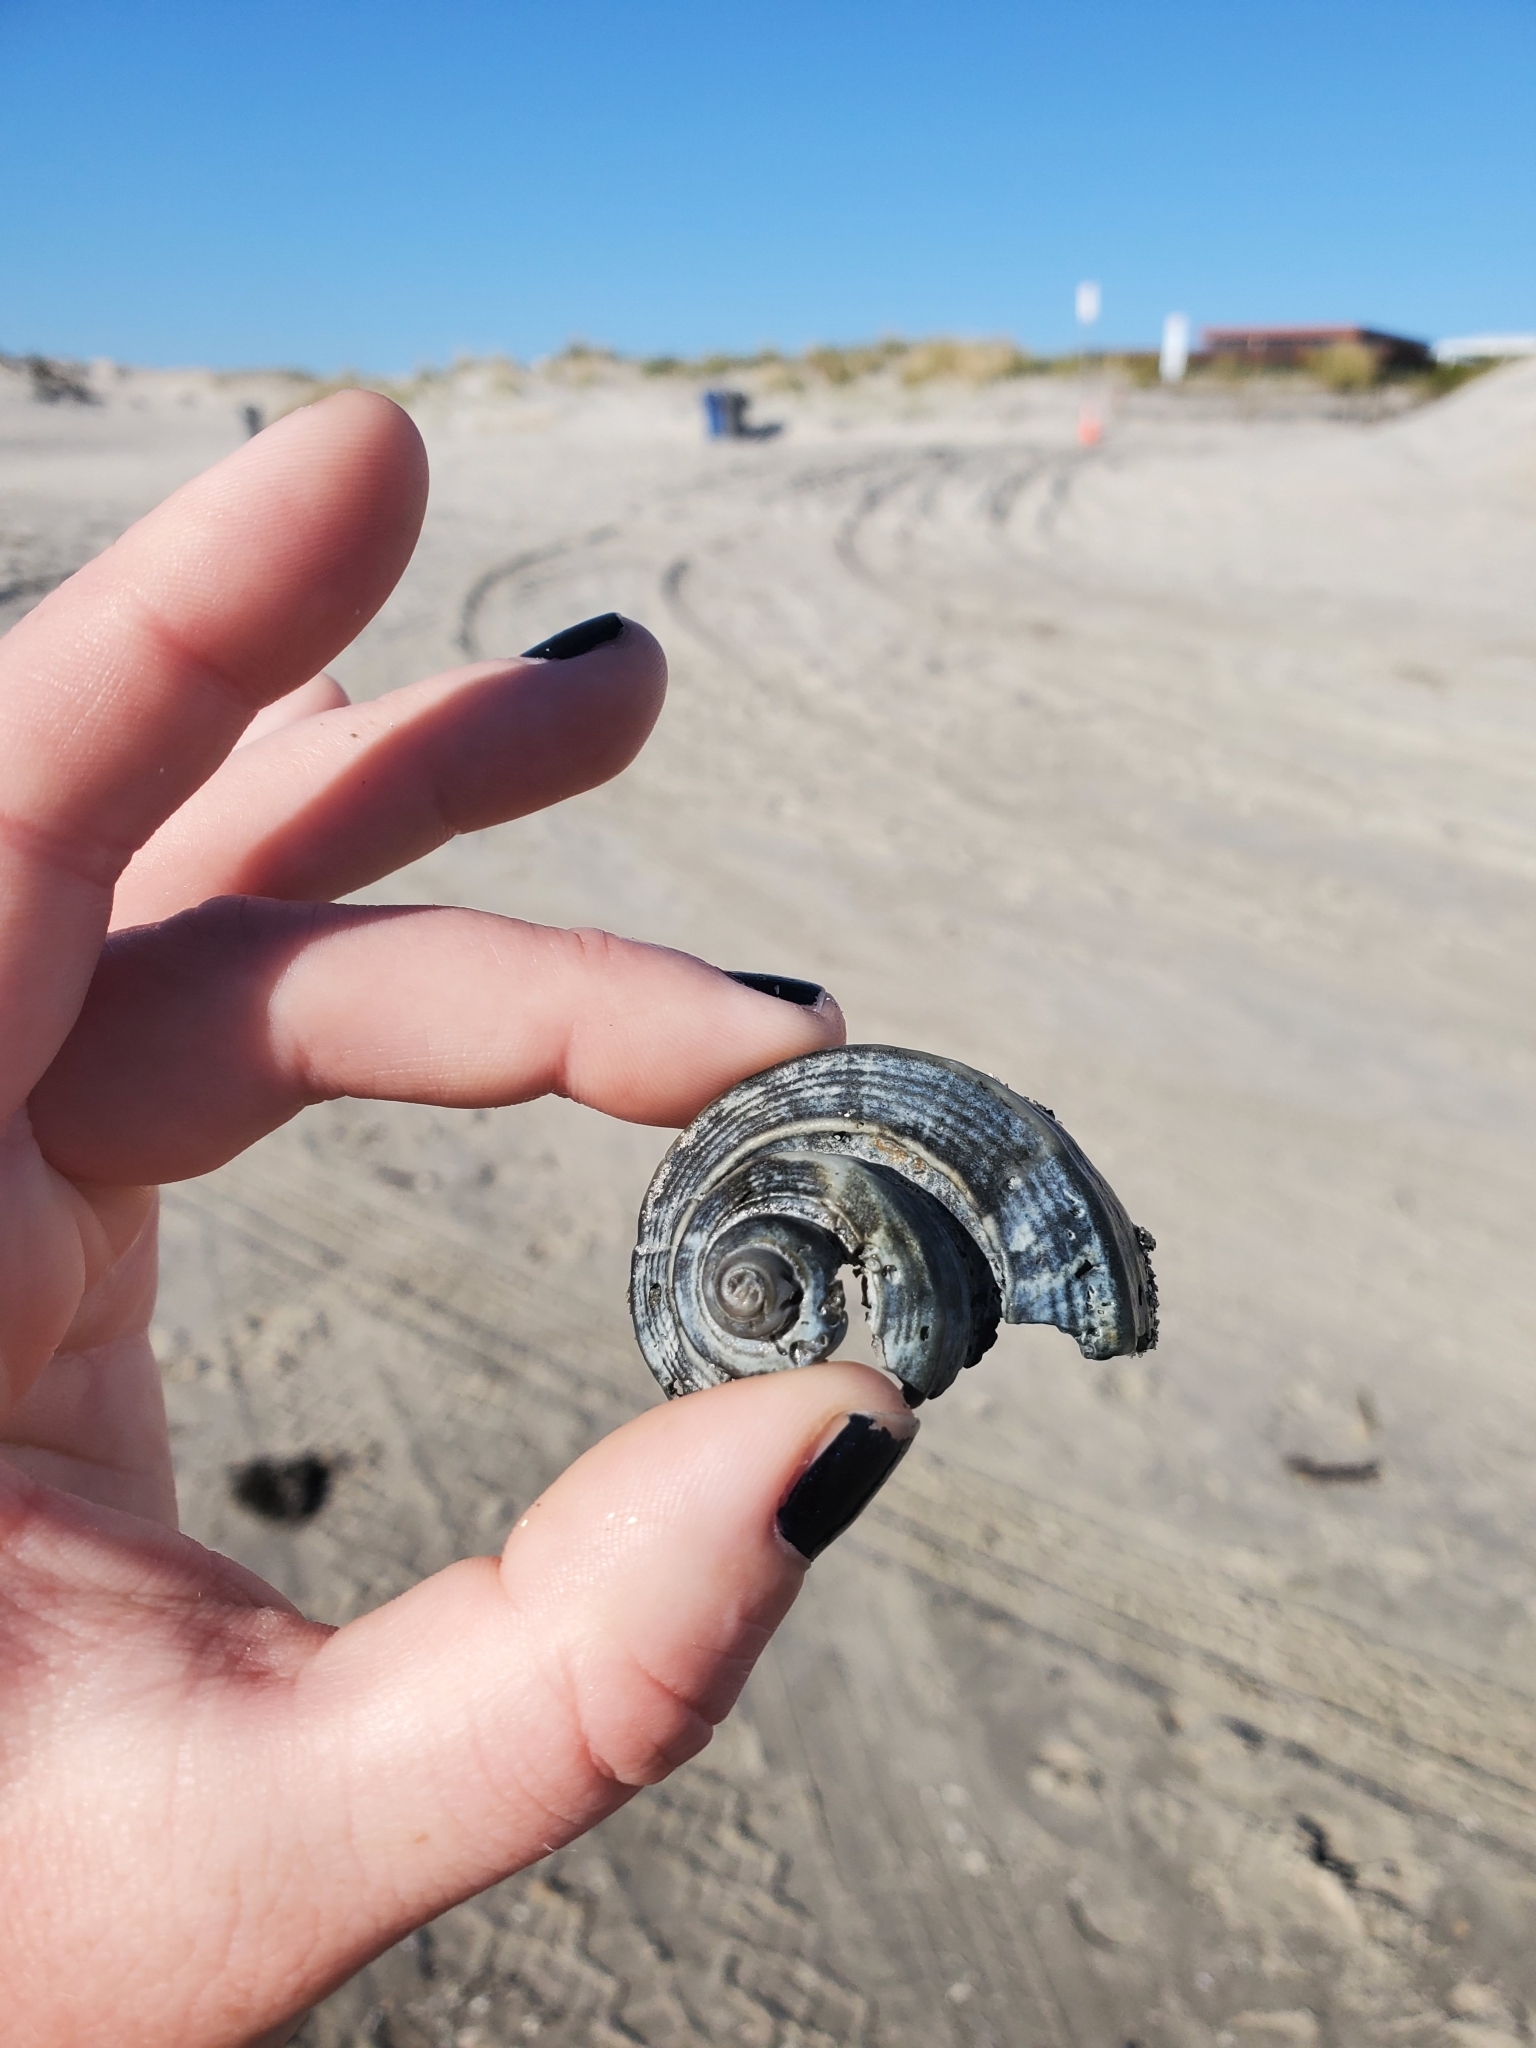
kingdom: Animalia
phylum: Mollusca
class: Gastropoda
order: Neogastropoda
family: Busyconidae
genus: Busycotypus
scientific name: Busycotypus canaliculatus
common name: Channeled whelk
